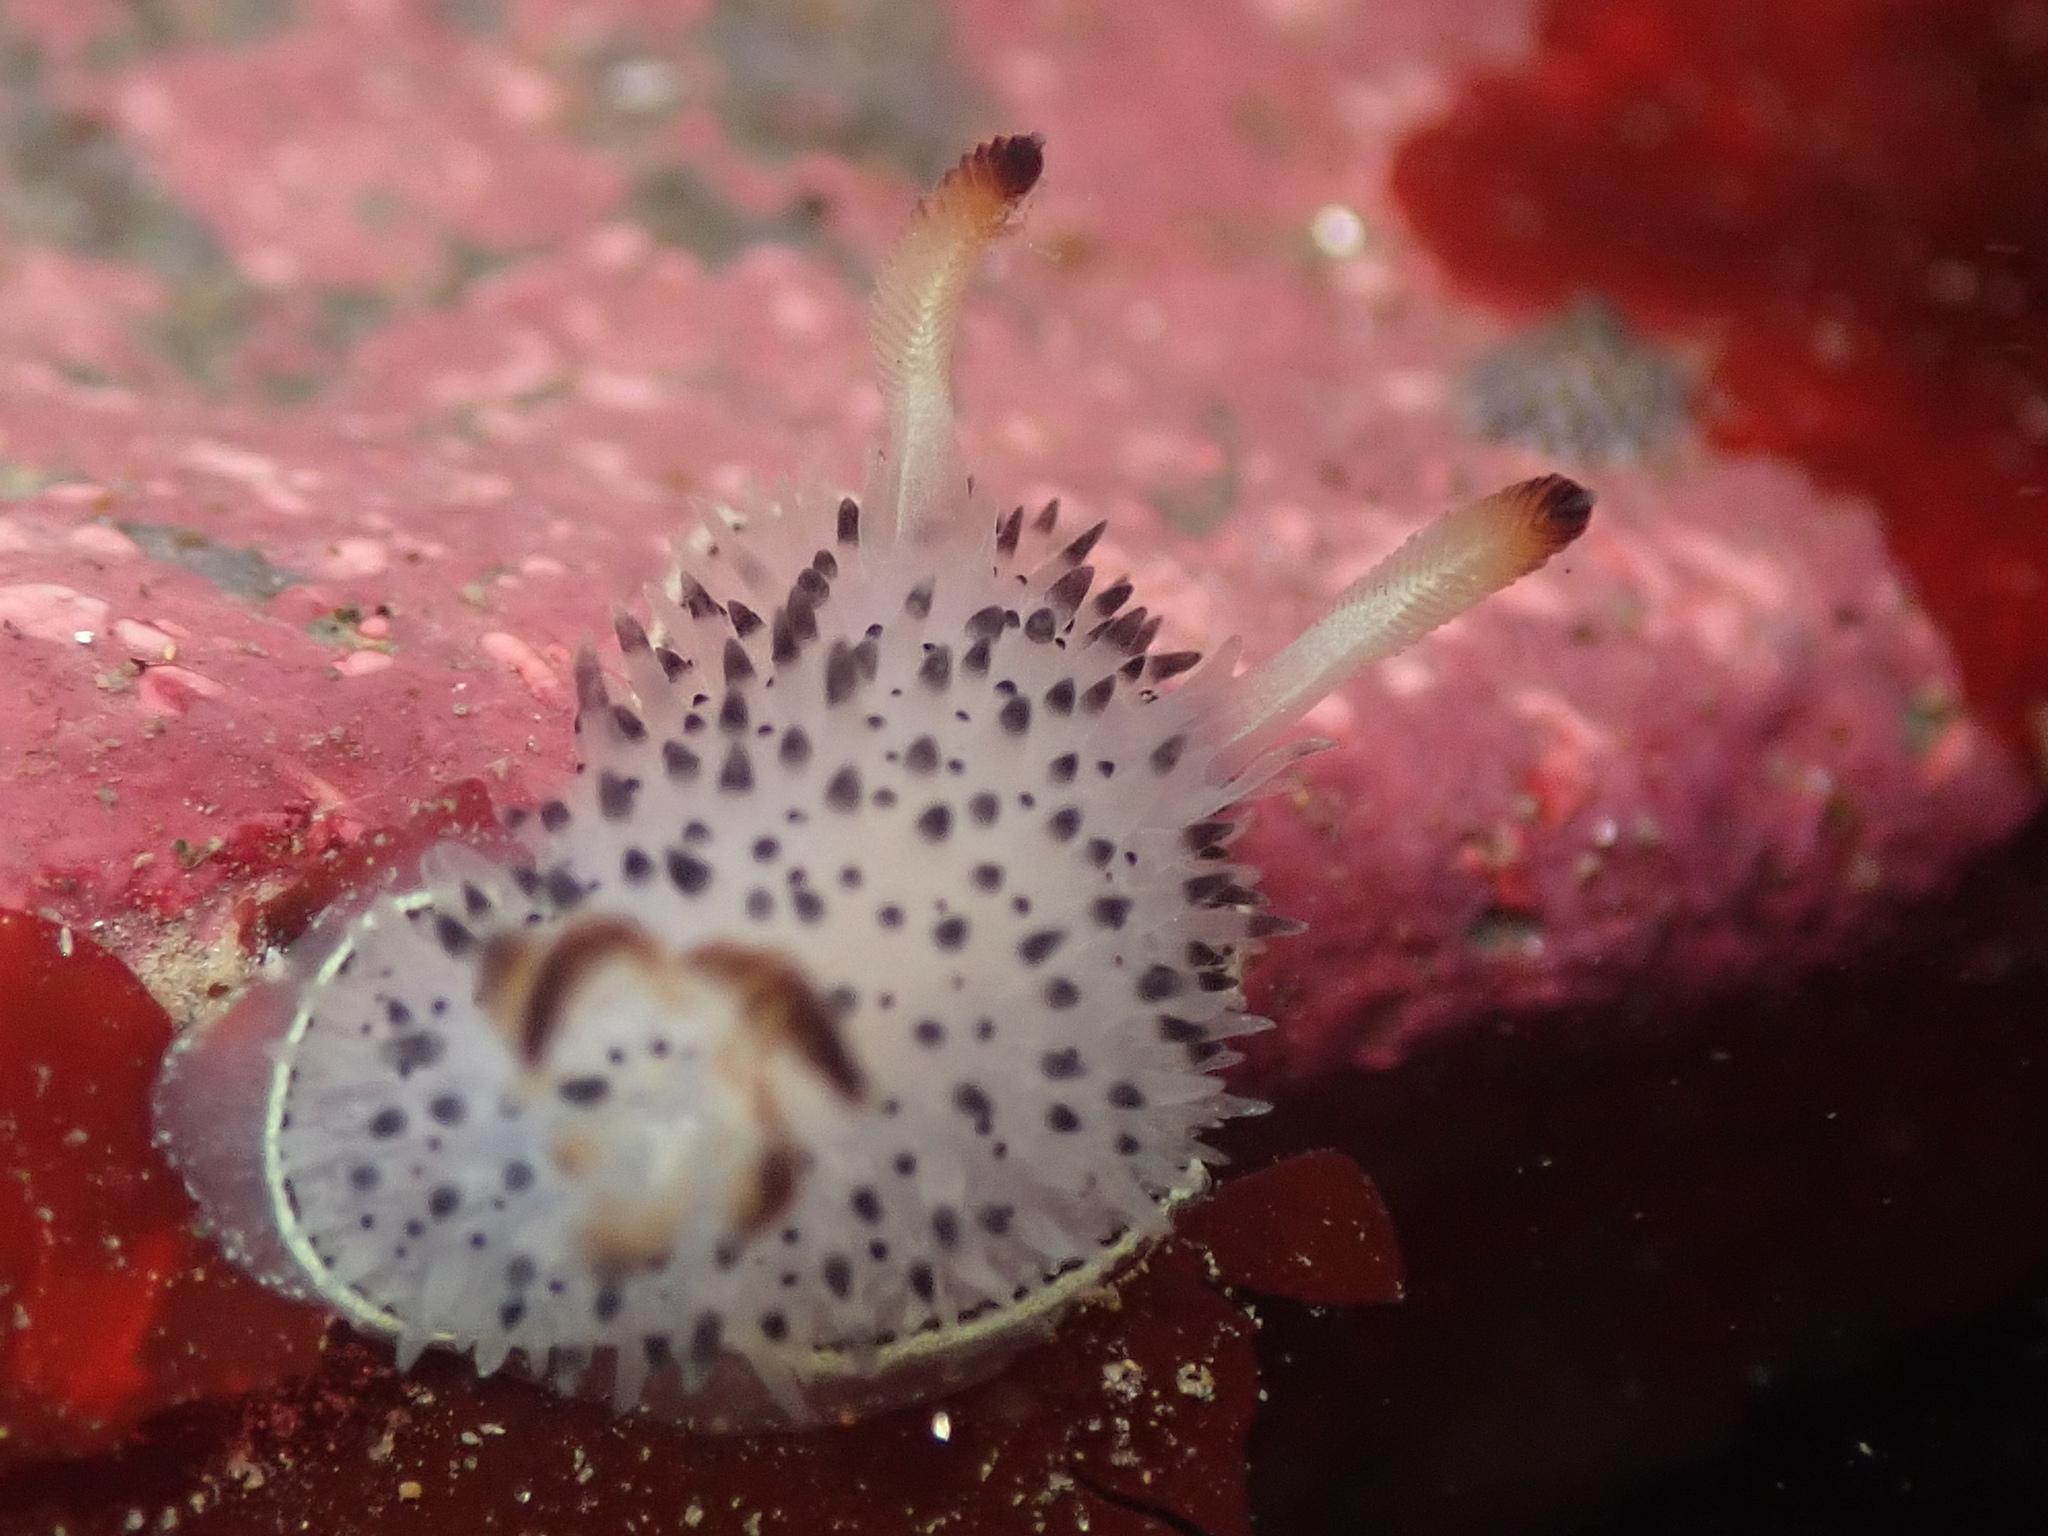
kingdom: Animalia
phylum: Mollusca
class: Gastropoda
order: Nudibranchia
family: Onchidorididae
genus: Acanthodoris
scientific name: Acanthodoris rhodoceras
